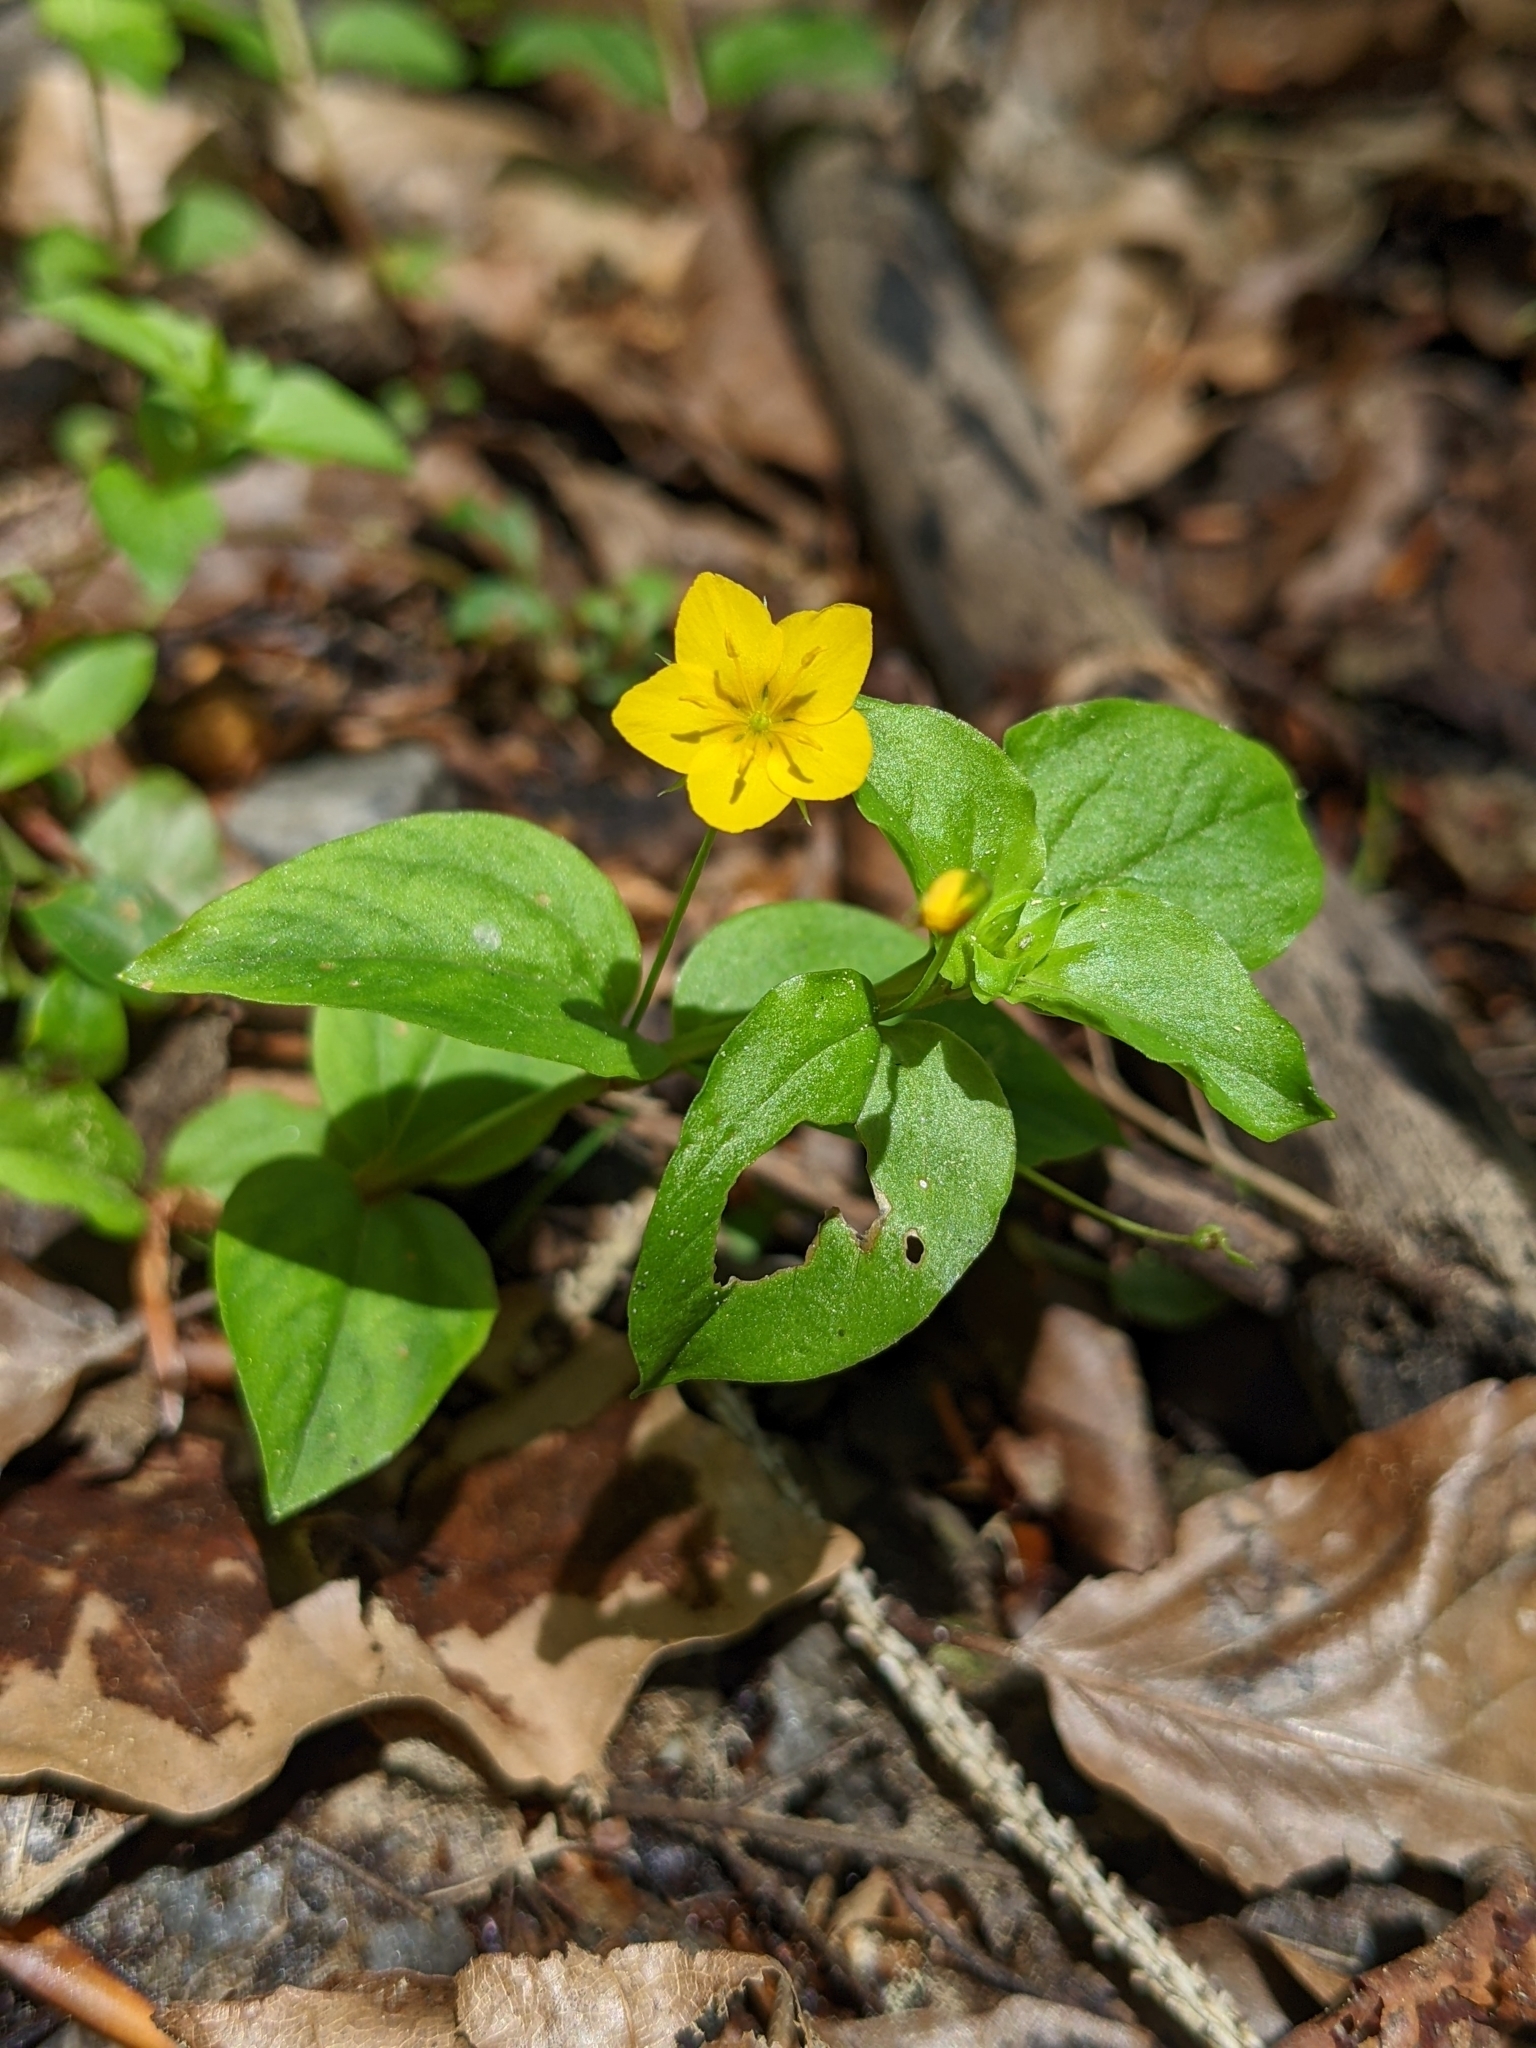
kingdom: Plantae
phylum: Tracheophyta
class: Magnoliopsida
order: Ericales
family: Primulaceae
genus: Lysimachia
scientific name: Lysimachia nemorum
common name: Yellow pimpernel
